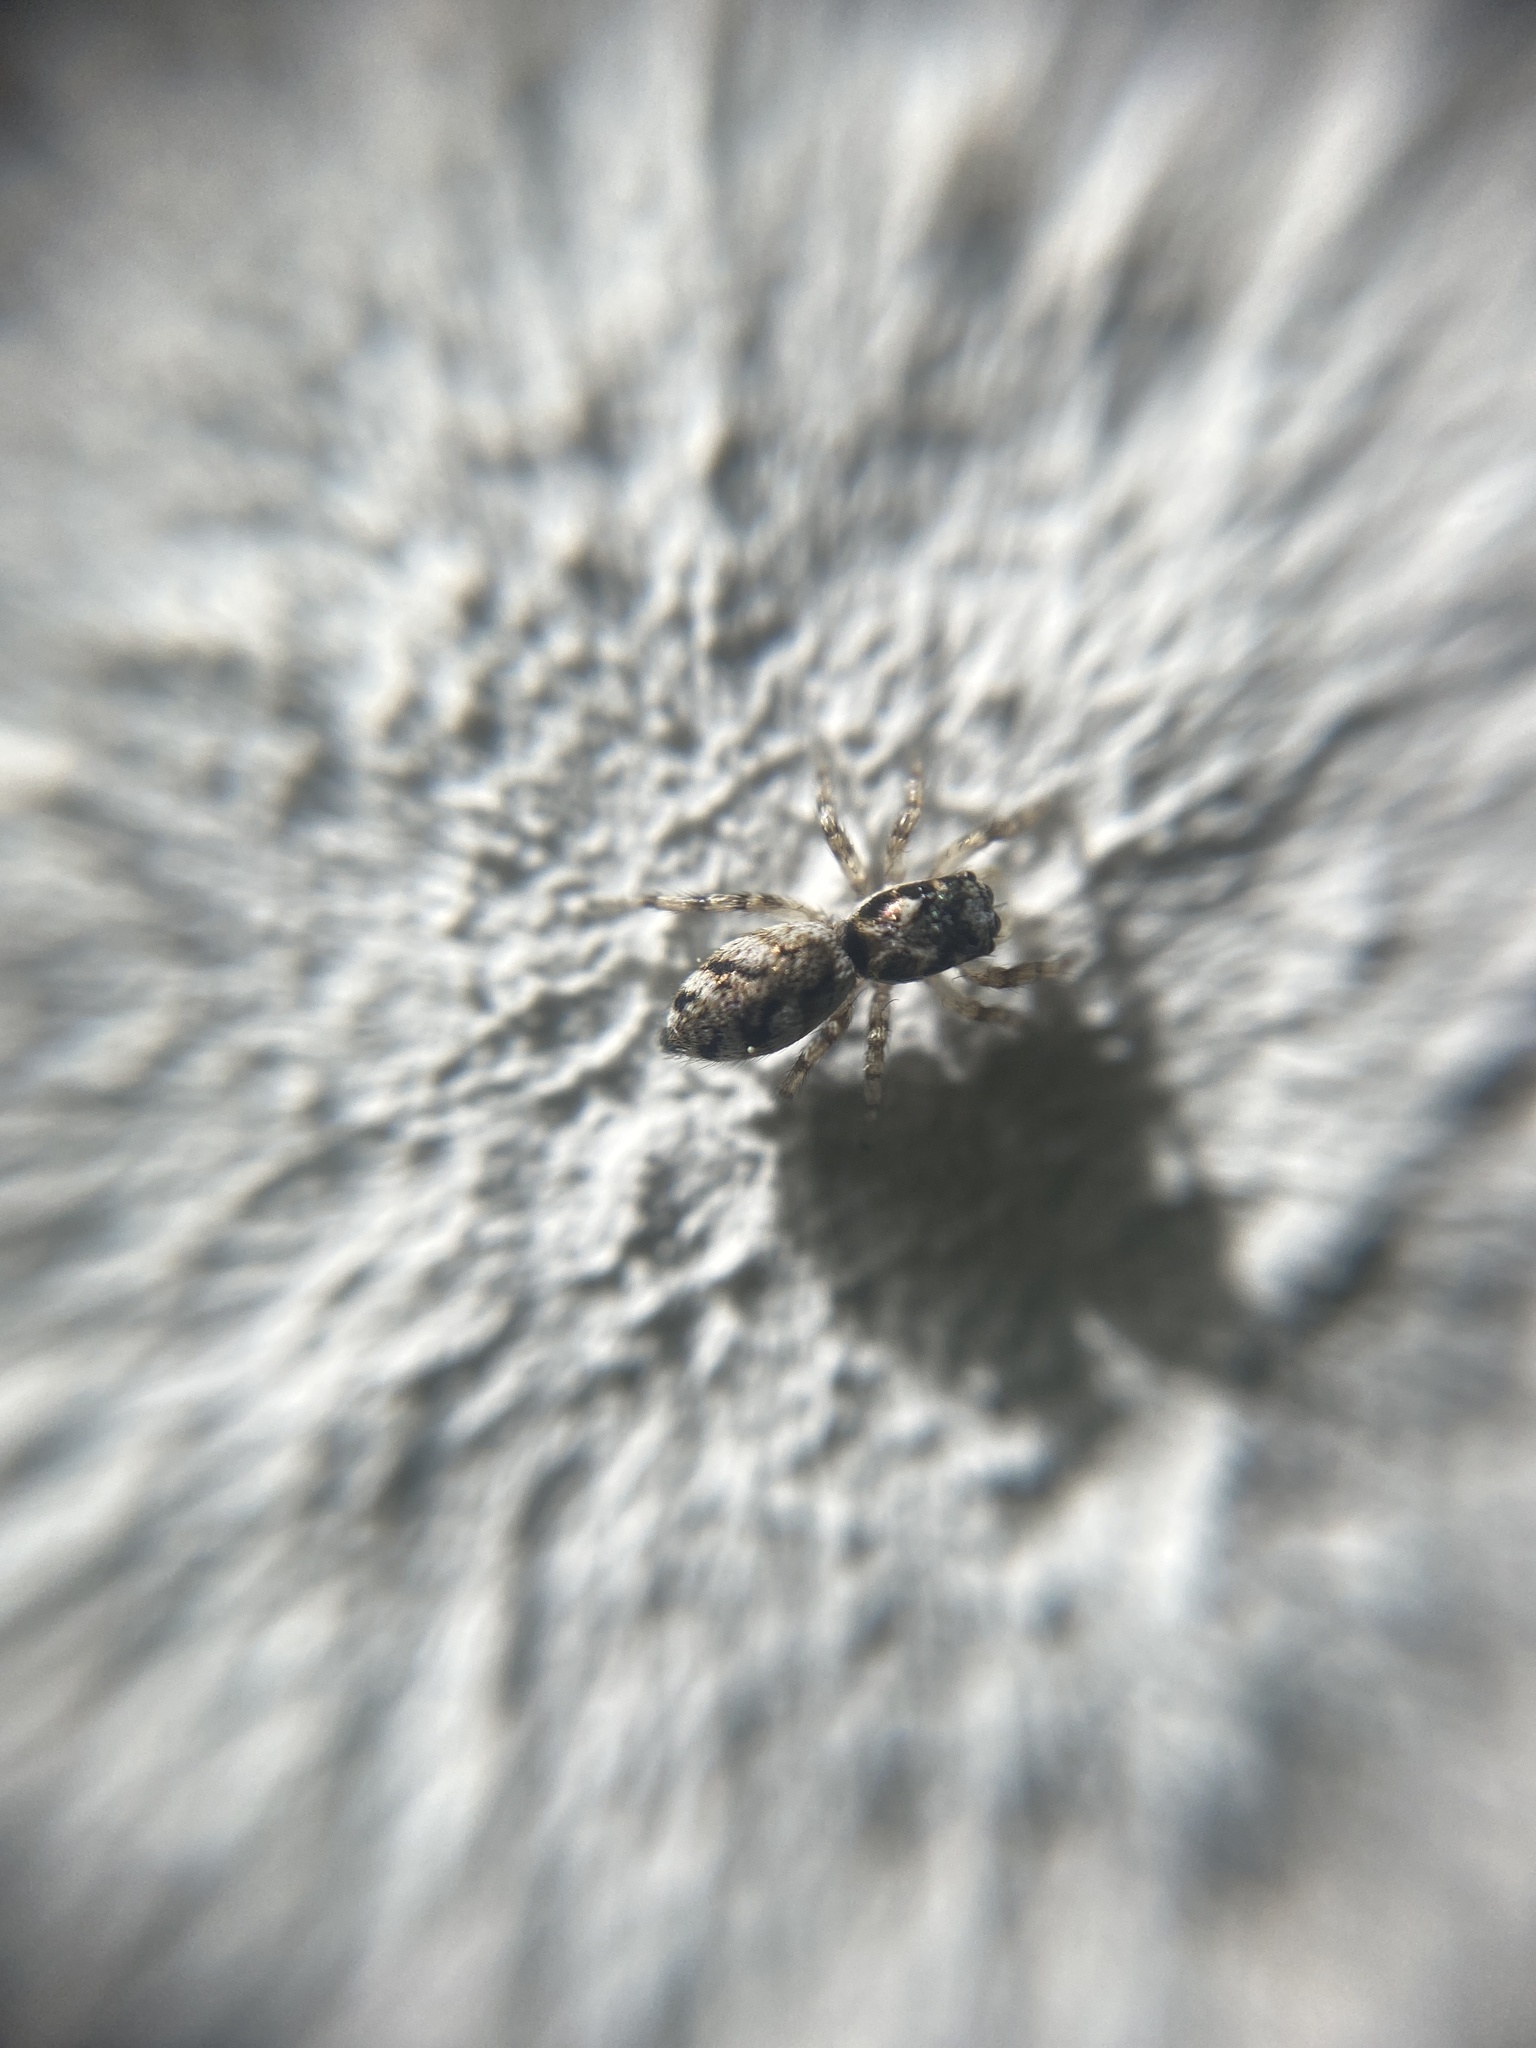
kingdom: Animalia
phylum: Arthropoda
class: Arachnida
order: Araneae
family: Salticidae
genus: Salticus
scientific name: Salticus zebraneus
